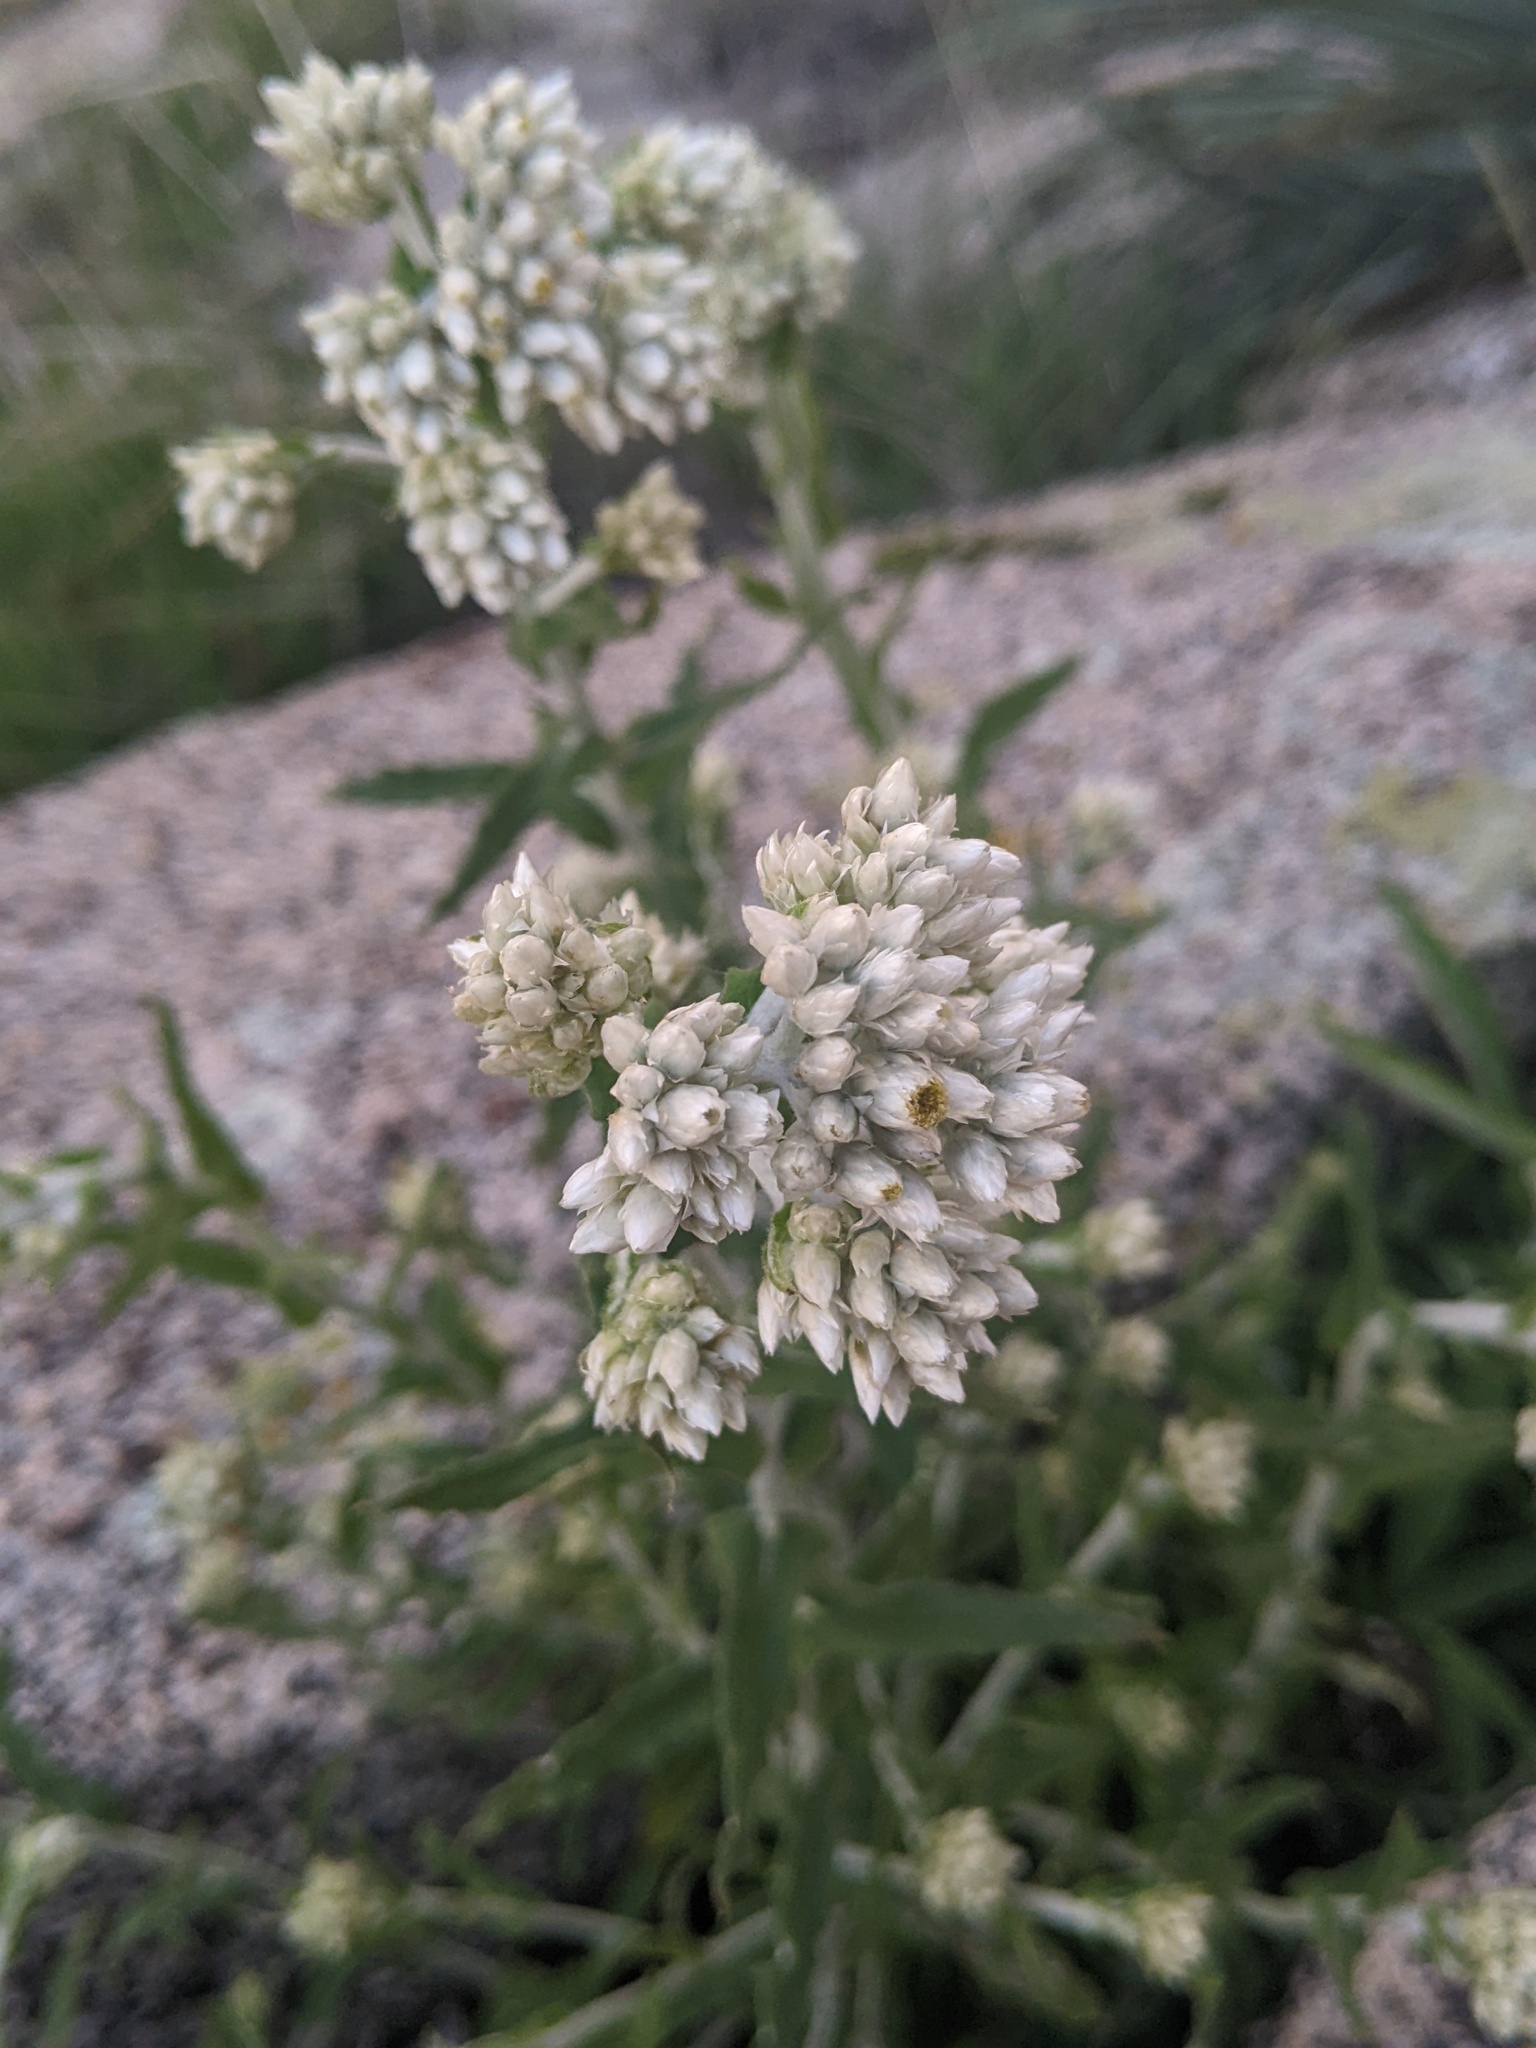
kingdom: Plantae
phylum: Tracheophyta
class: Magnoliopsida
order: Asterales
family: Asteraceae
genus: Pseudognaphalium
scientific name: Pseudognaphalium biolettii
